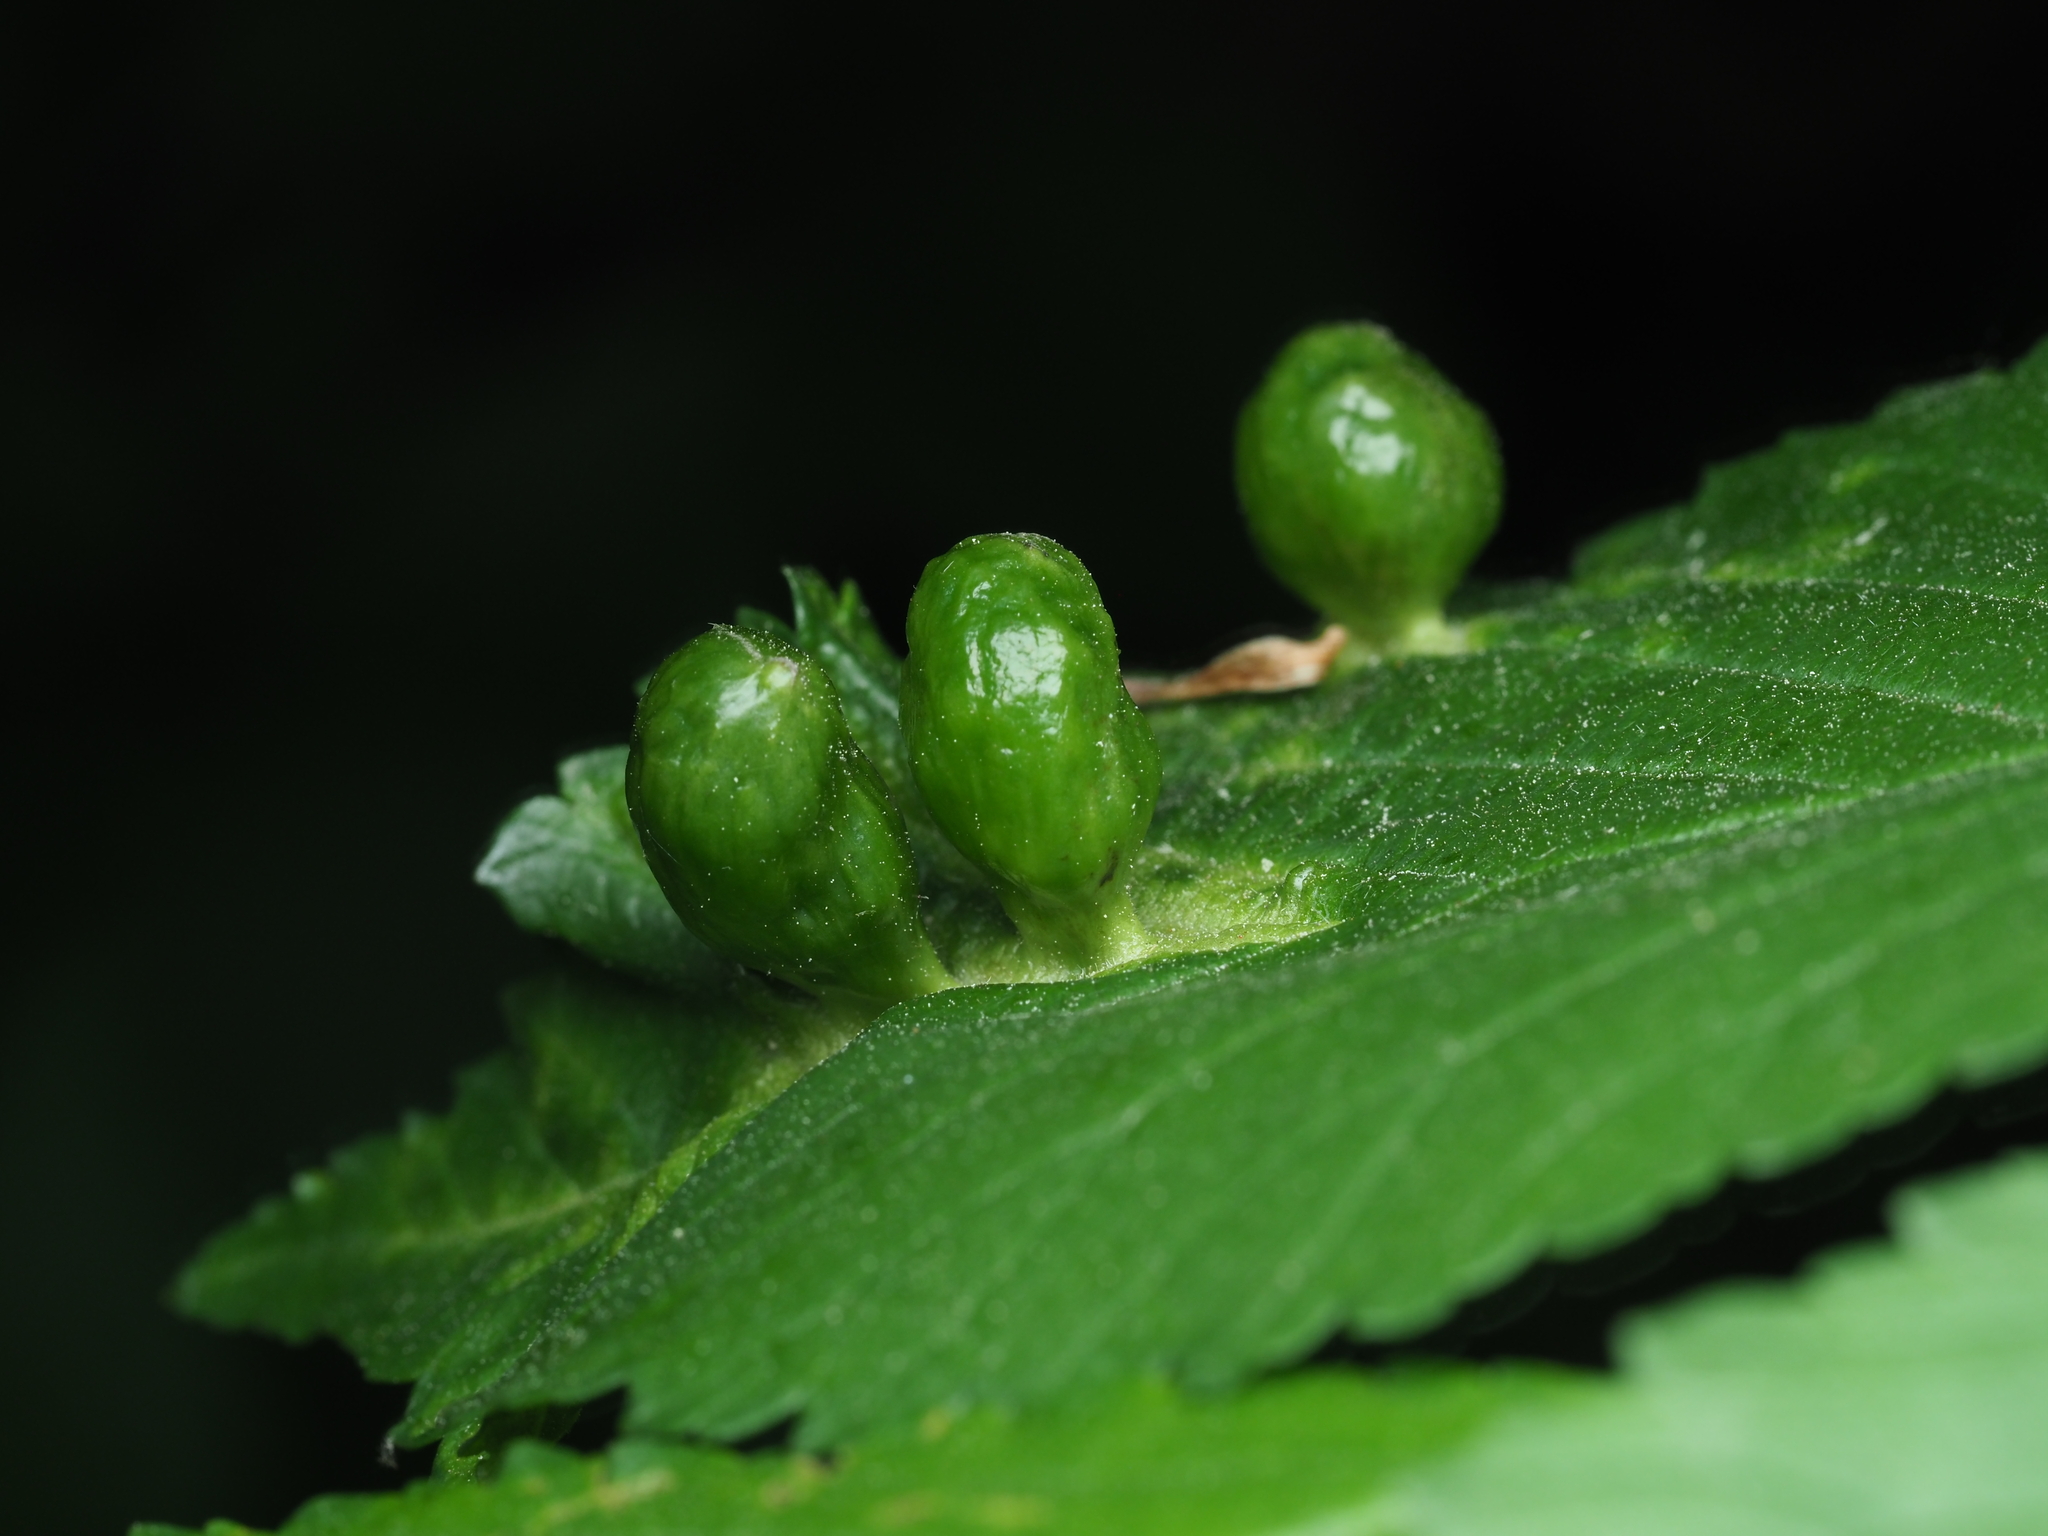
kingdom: Animalia
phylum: Arthropoda
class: Insecta
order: Hemiptera
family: Aphididae
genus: Tetraneura
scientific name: Tetraneura ulmi
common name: Aphid
